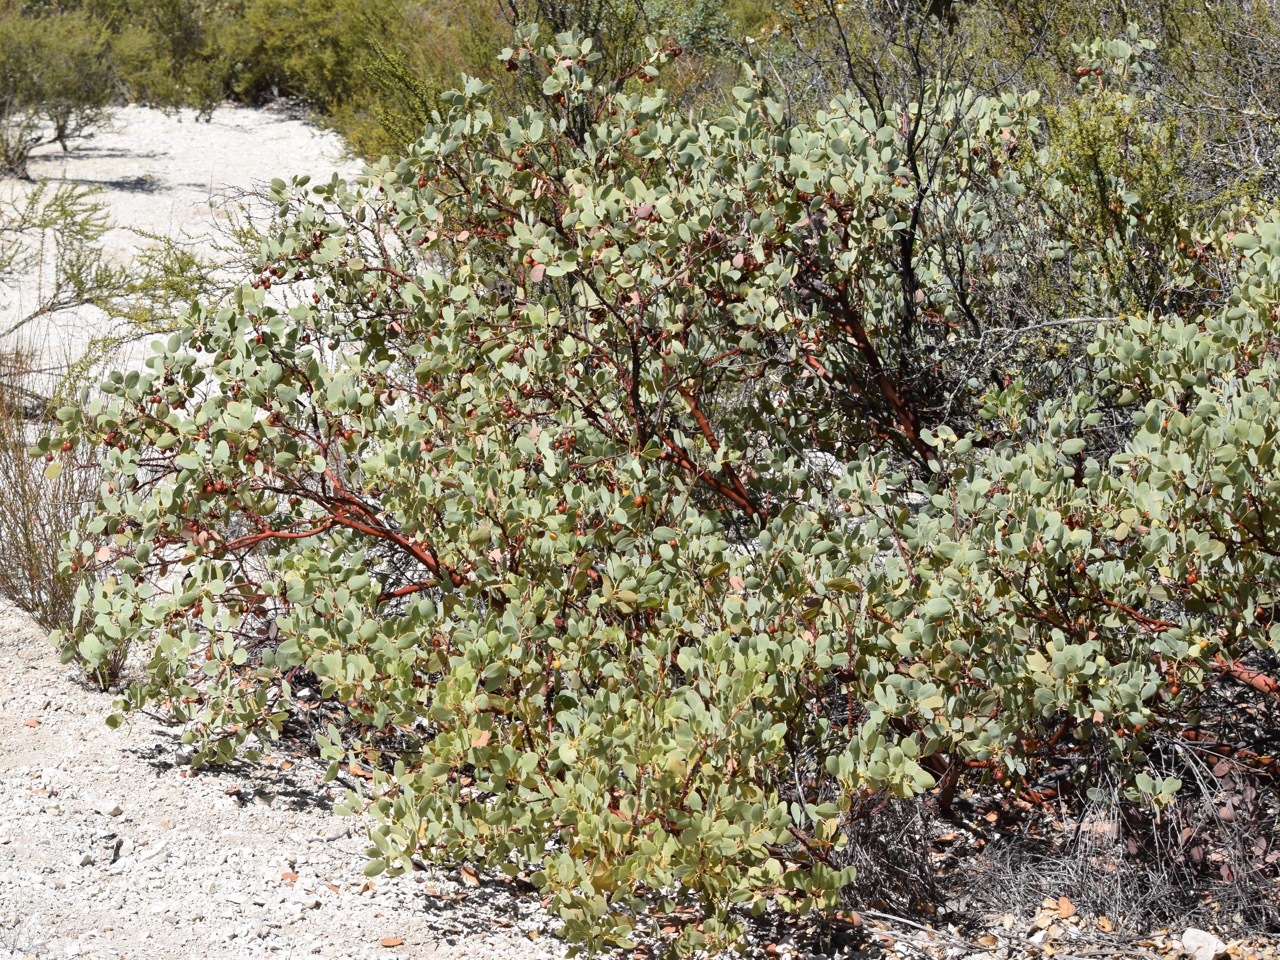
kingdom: Plantae
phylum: Tracheophyta
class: Magnoliopsida
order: Ericales
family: Ericaceae
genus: Arctostaphylos
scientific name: Arctostaphylos glauca
